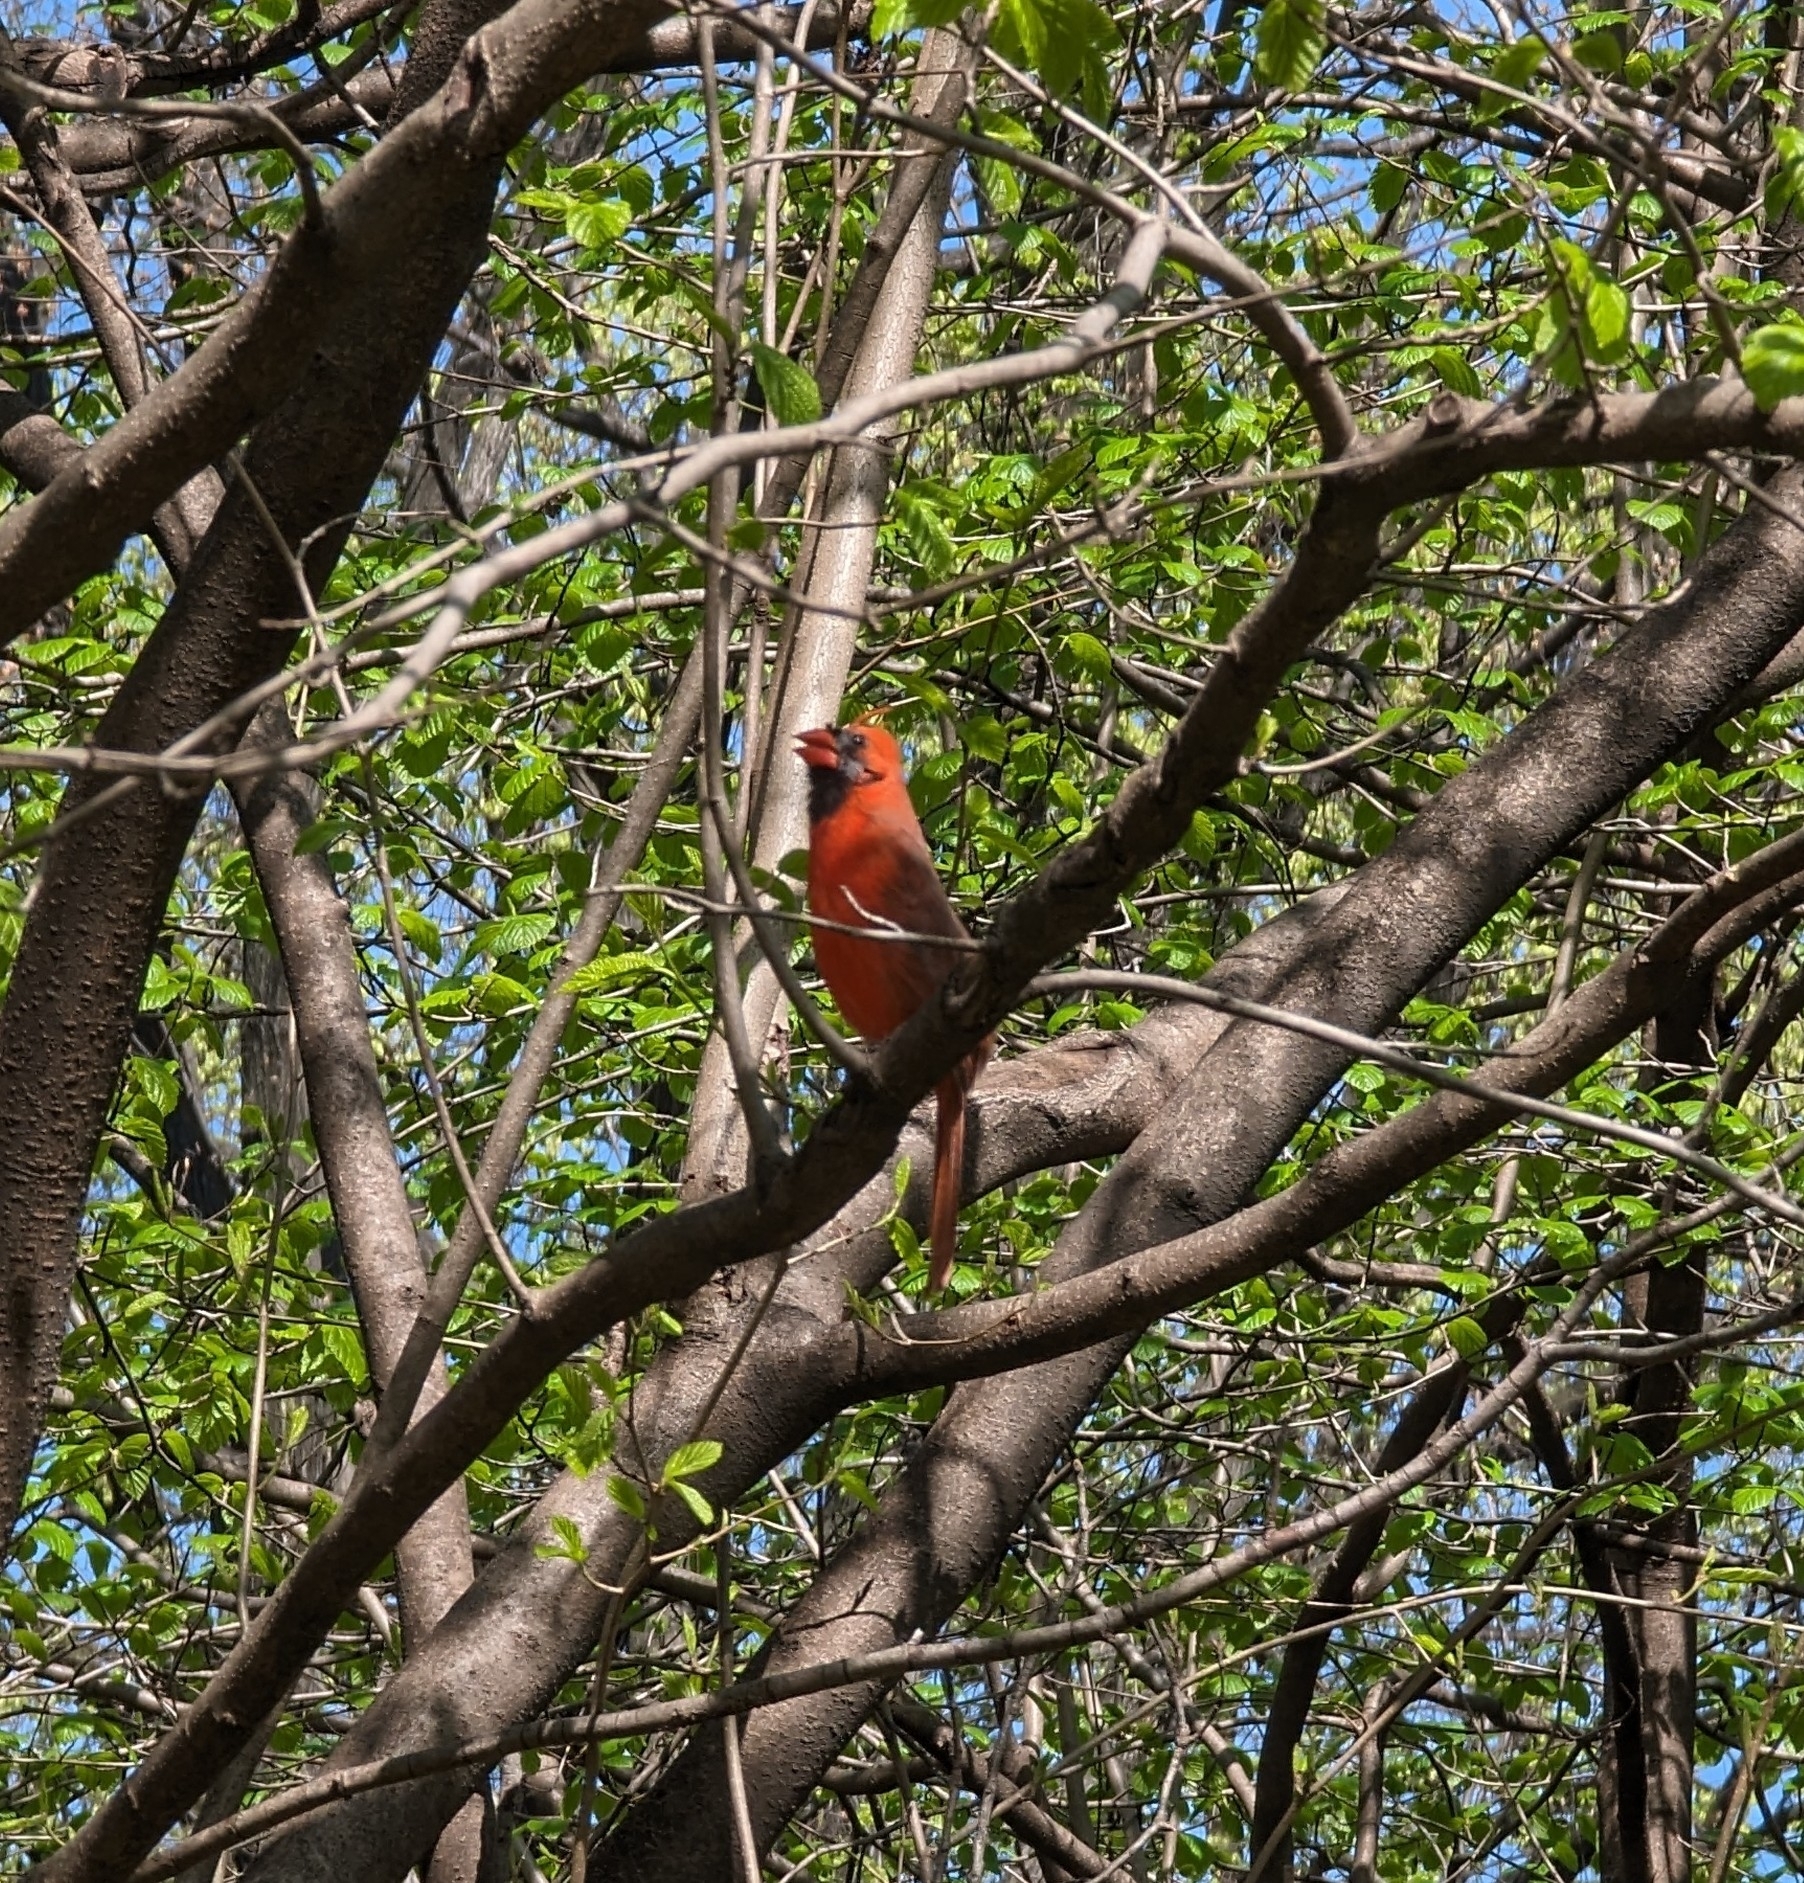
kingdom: Animalia
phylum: Chordata
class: Aves
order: Passeriformes
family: Cardinalidae
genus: Cardinalis
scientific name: Cardinalis cardinalis
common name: Northern cardinal
